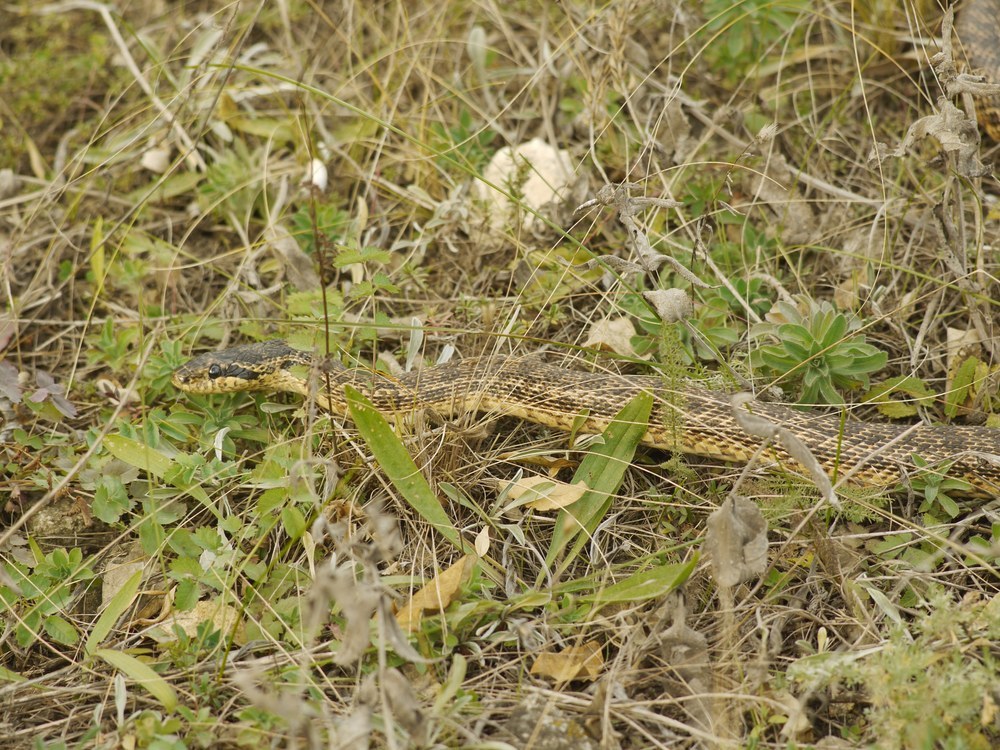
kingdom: Animalia
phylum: Chordata
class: Squamata
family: Colubridae
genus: Elaphe
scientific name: Elaphe sauromates
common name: Eastern four-lined ratsnake
